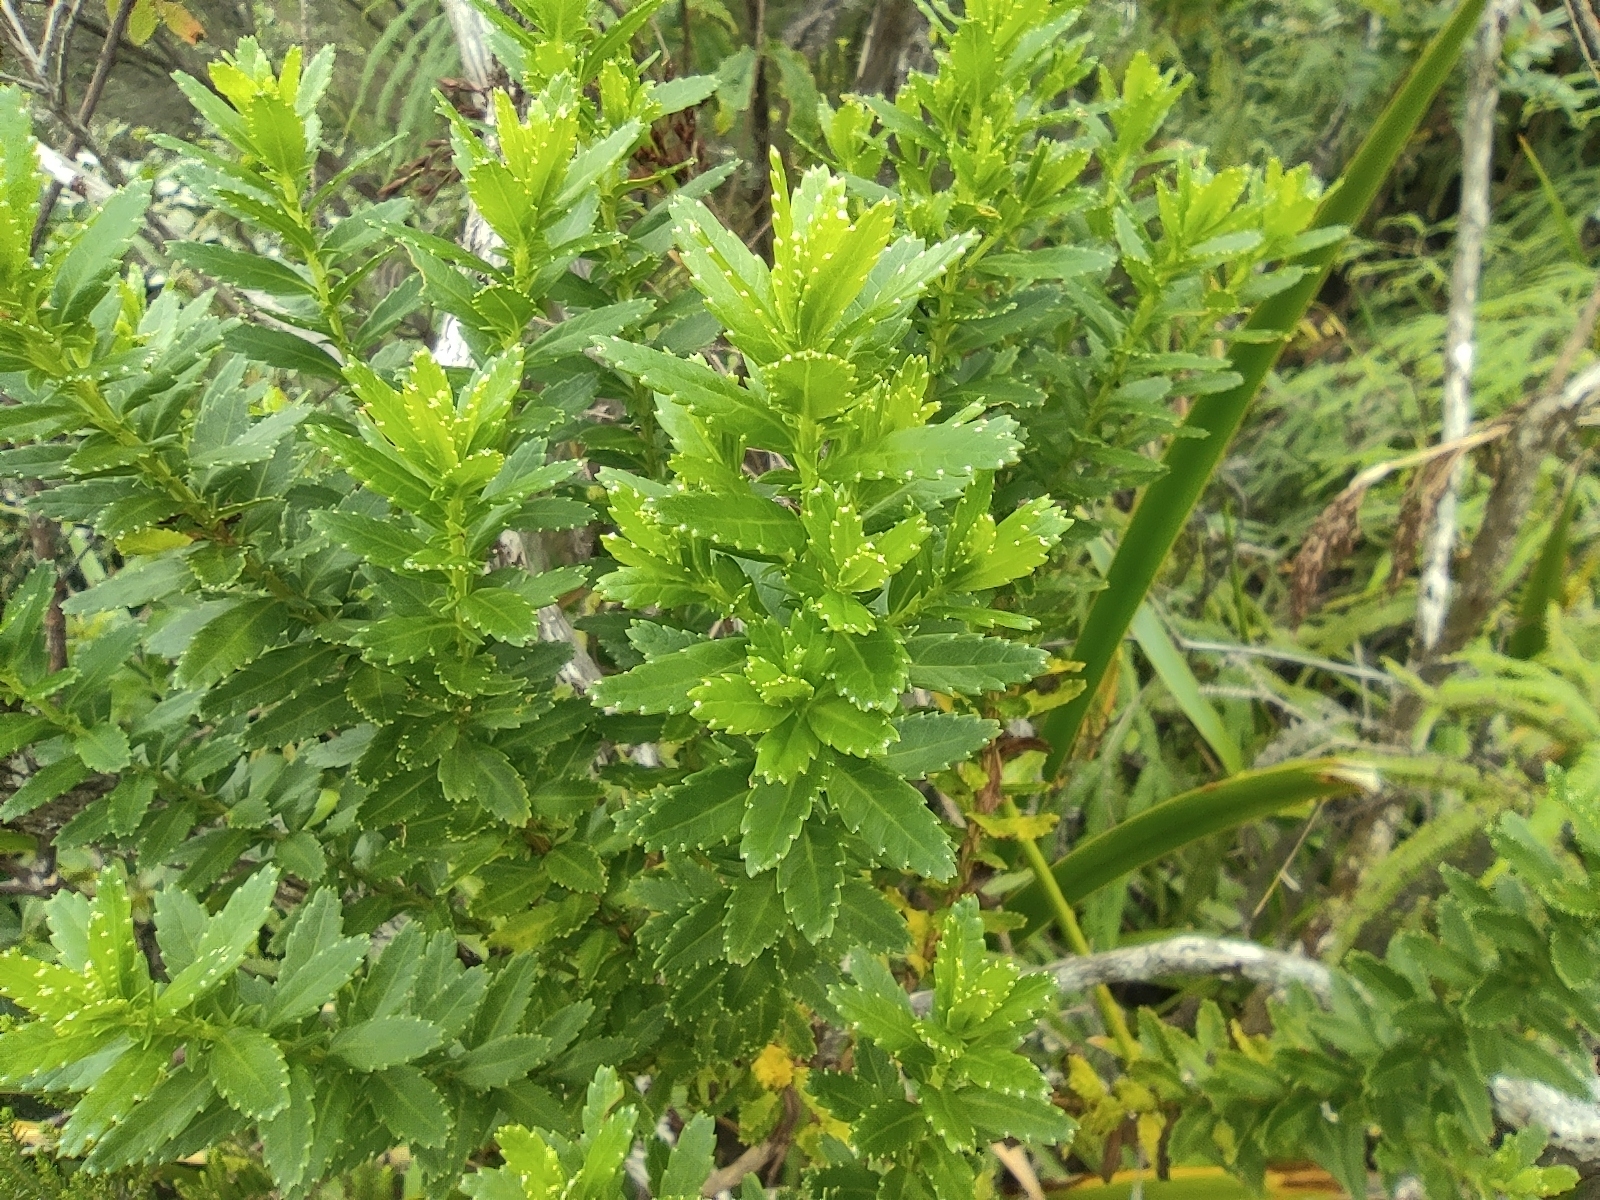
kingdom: Plantae
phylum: Tracheophyta
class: Magnoliopsida
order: Asterales
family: Asteraceae
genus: Hubertia
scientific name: Hubertia ambavilla
